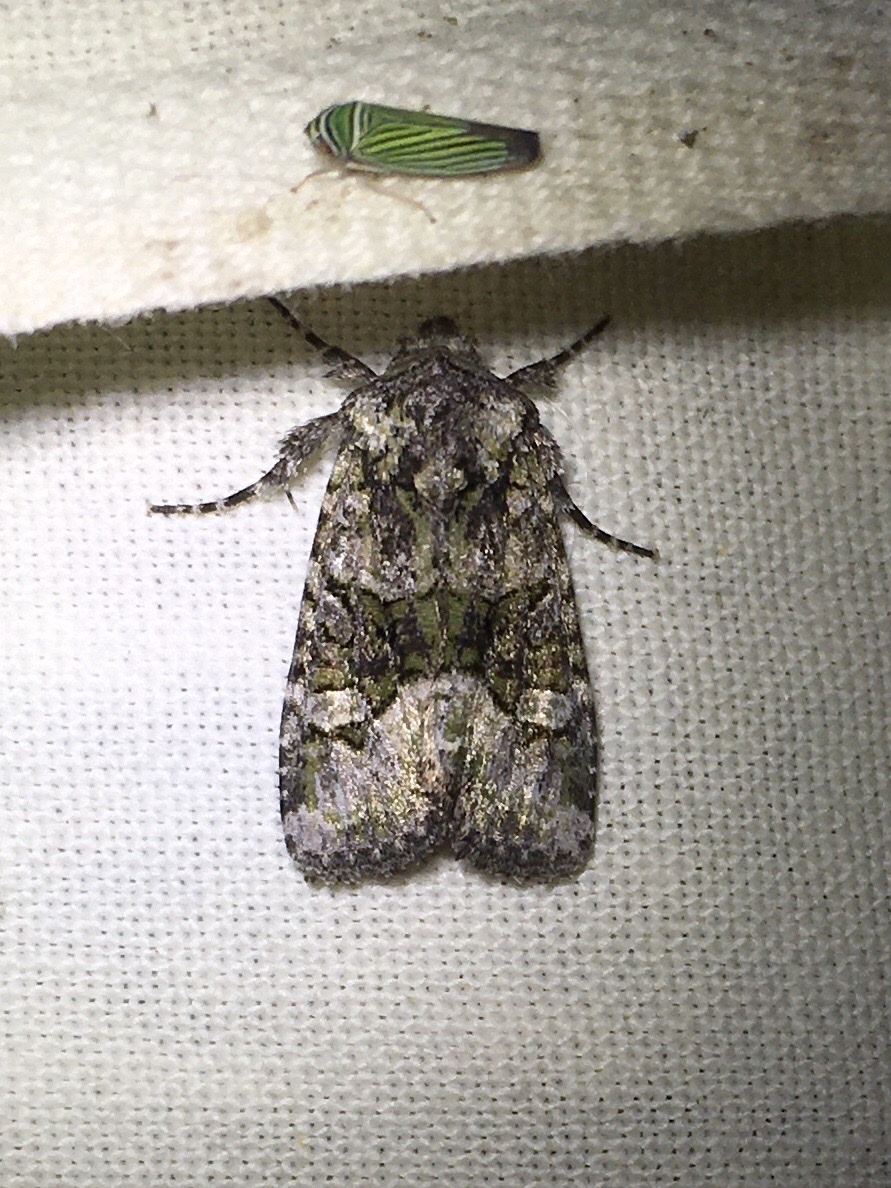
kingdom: Animalia
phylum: Arthropoda
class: Insecta
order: Lepidoptera
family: Noctuidae
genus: Lacinipolia
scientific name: Lacinipolia olivacea
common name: Olive arches moth
